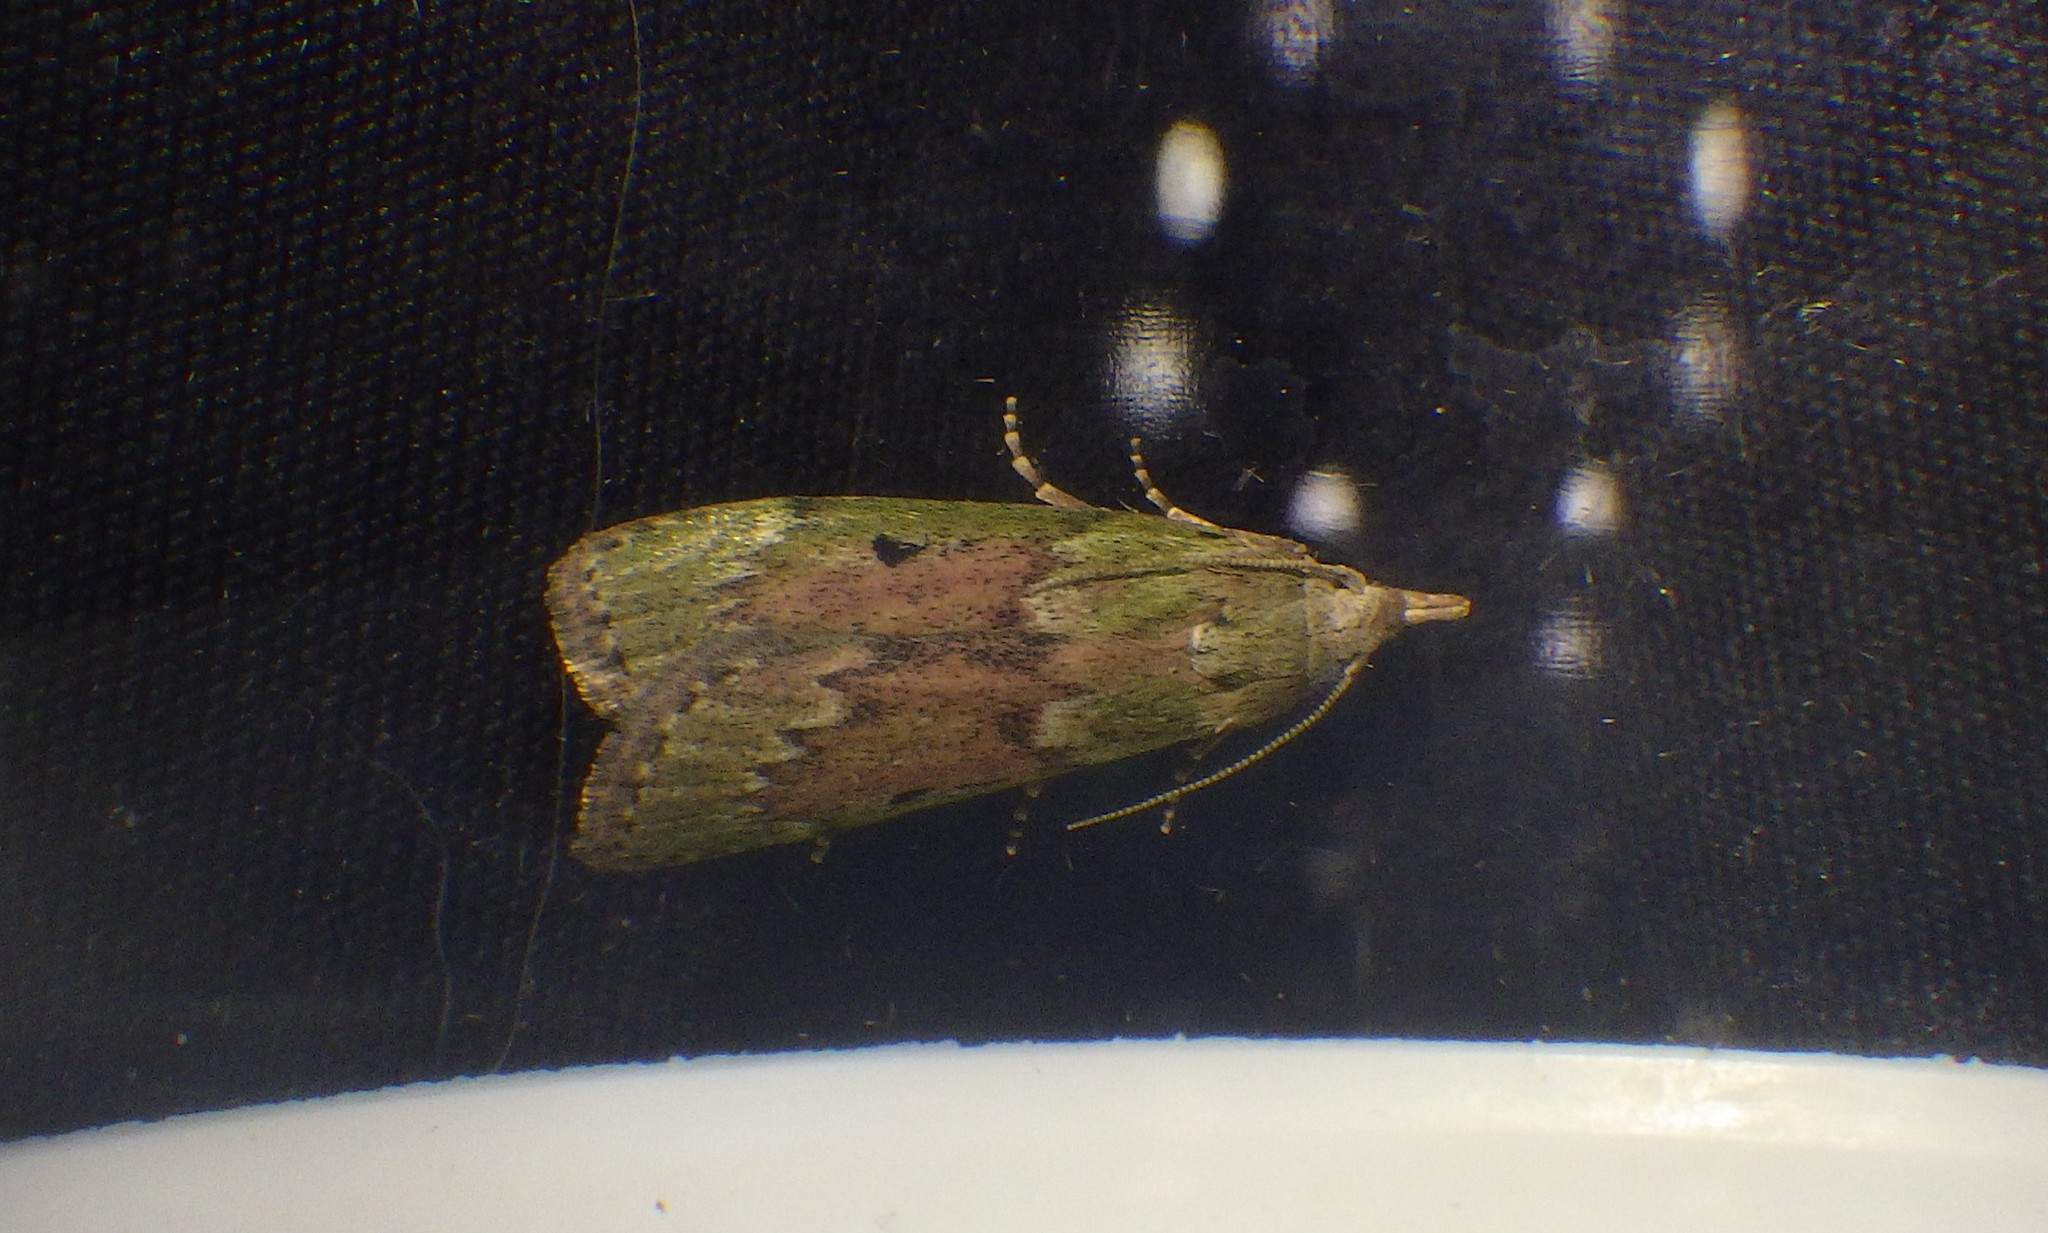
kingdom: Animalia
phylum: Arthropoda
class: Insecta
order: Lepidoptera
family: Pyralidae
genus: Aphomia
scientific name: Aphomia sociella
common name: Bee moth
